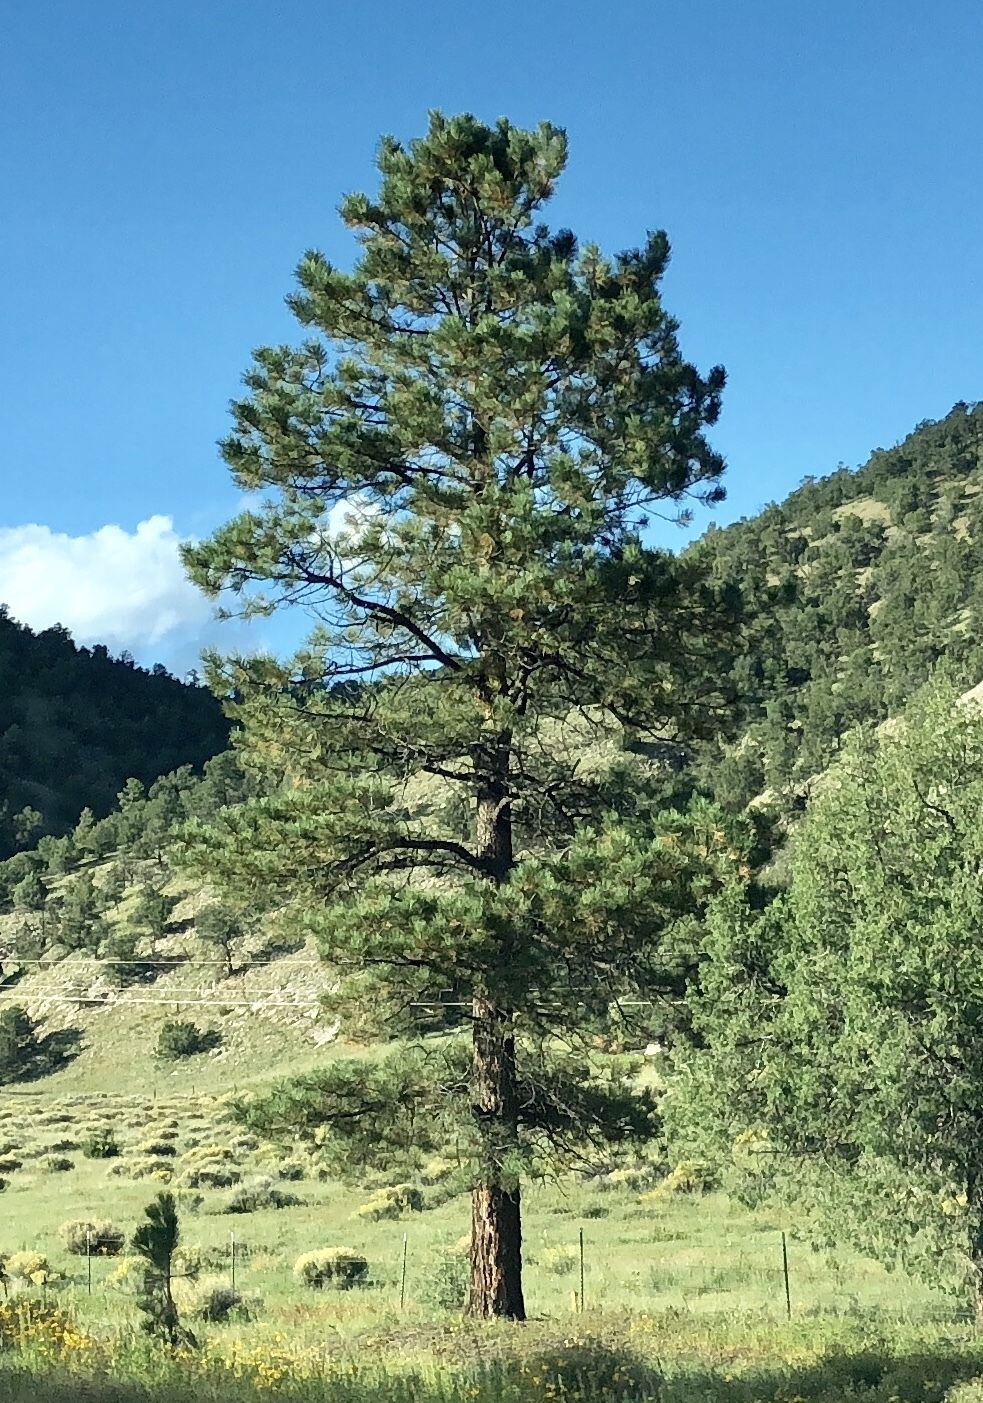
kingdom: Plantae
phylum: Tracheophyta
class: Pinopsida
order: Pinales
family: Pinaceae
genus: Pinus
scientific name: Pinus ponderosa
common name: Western yellow-pine
